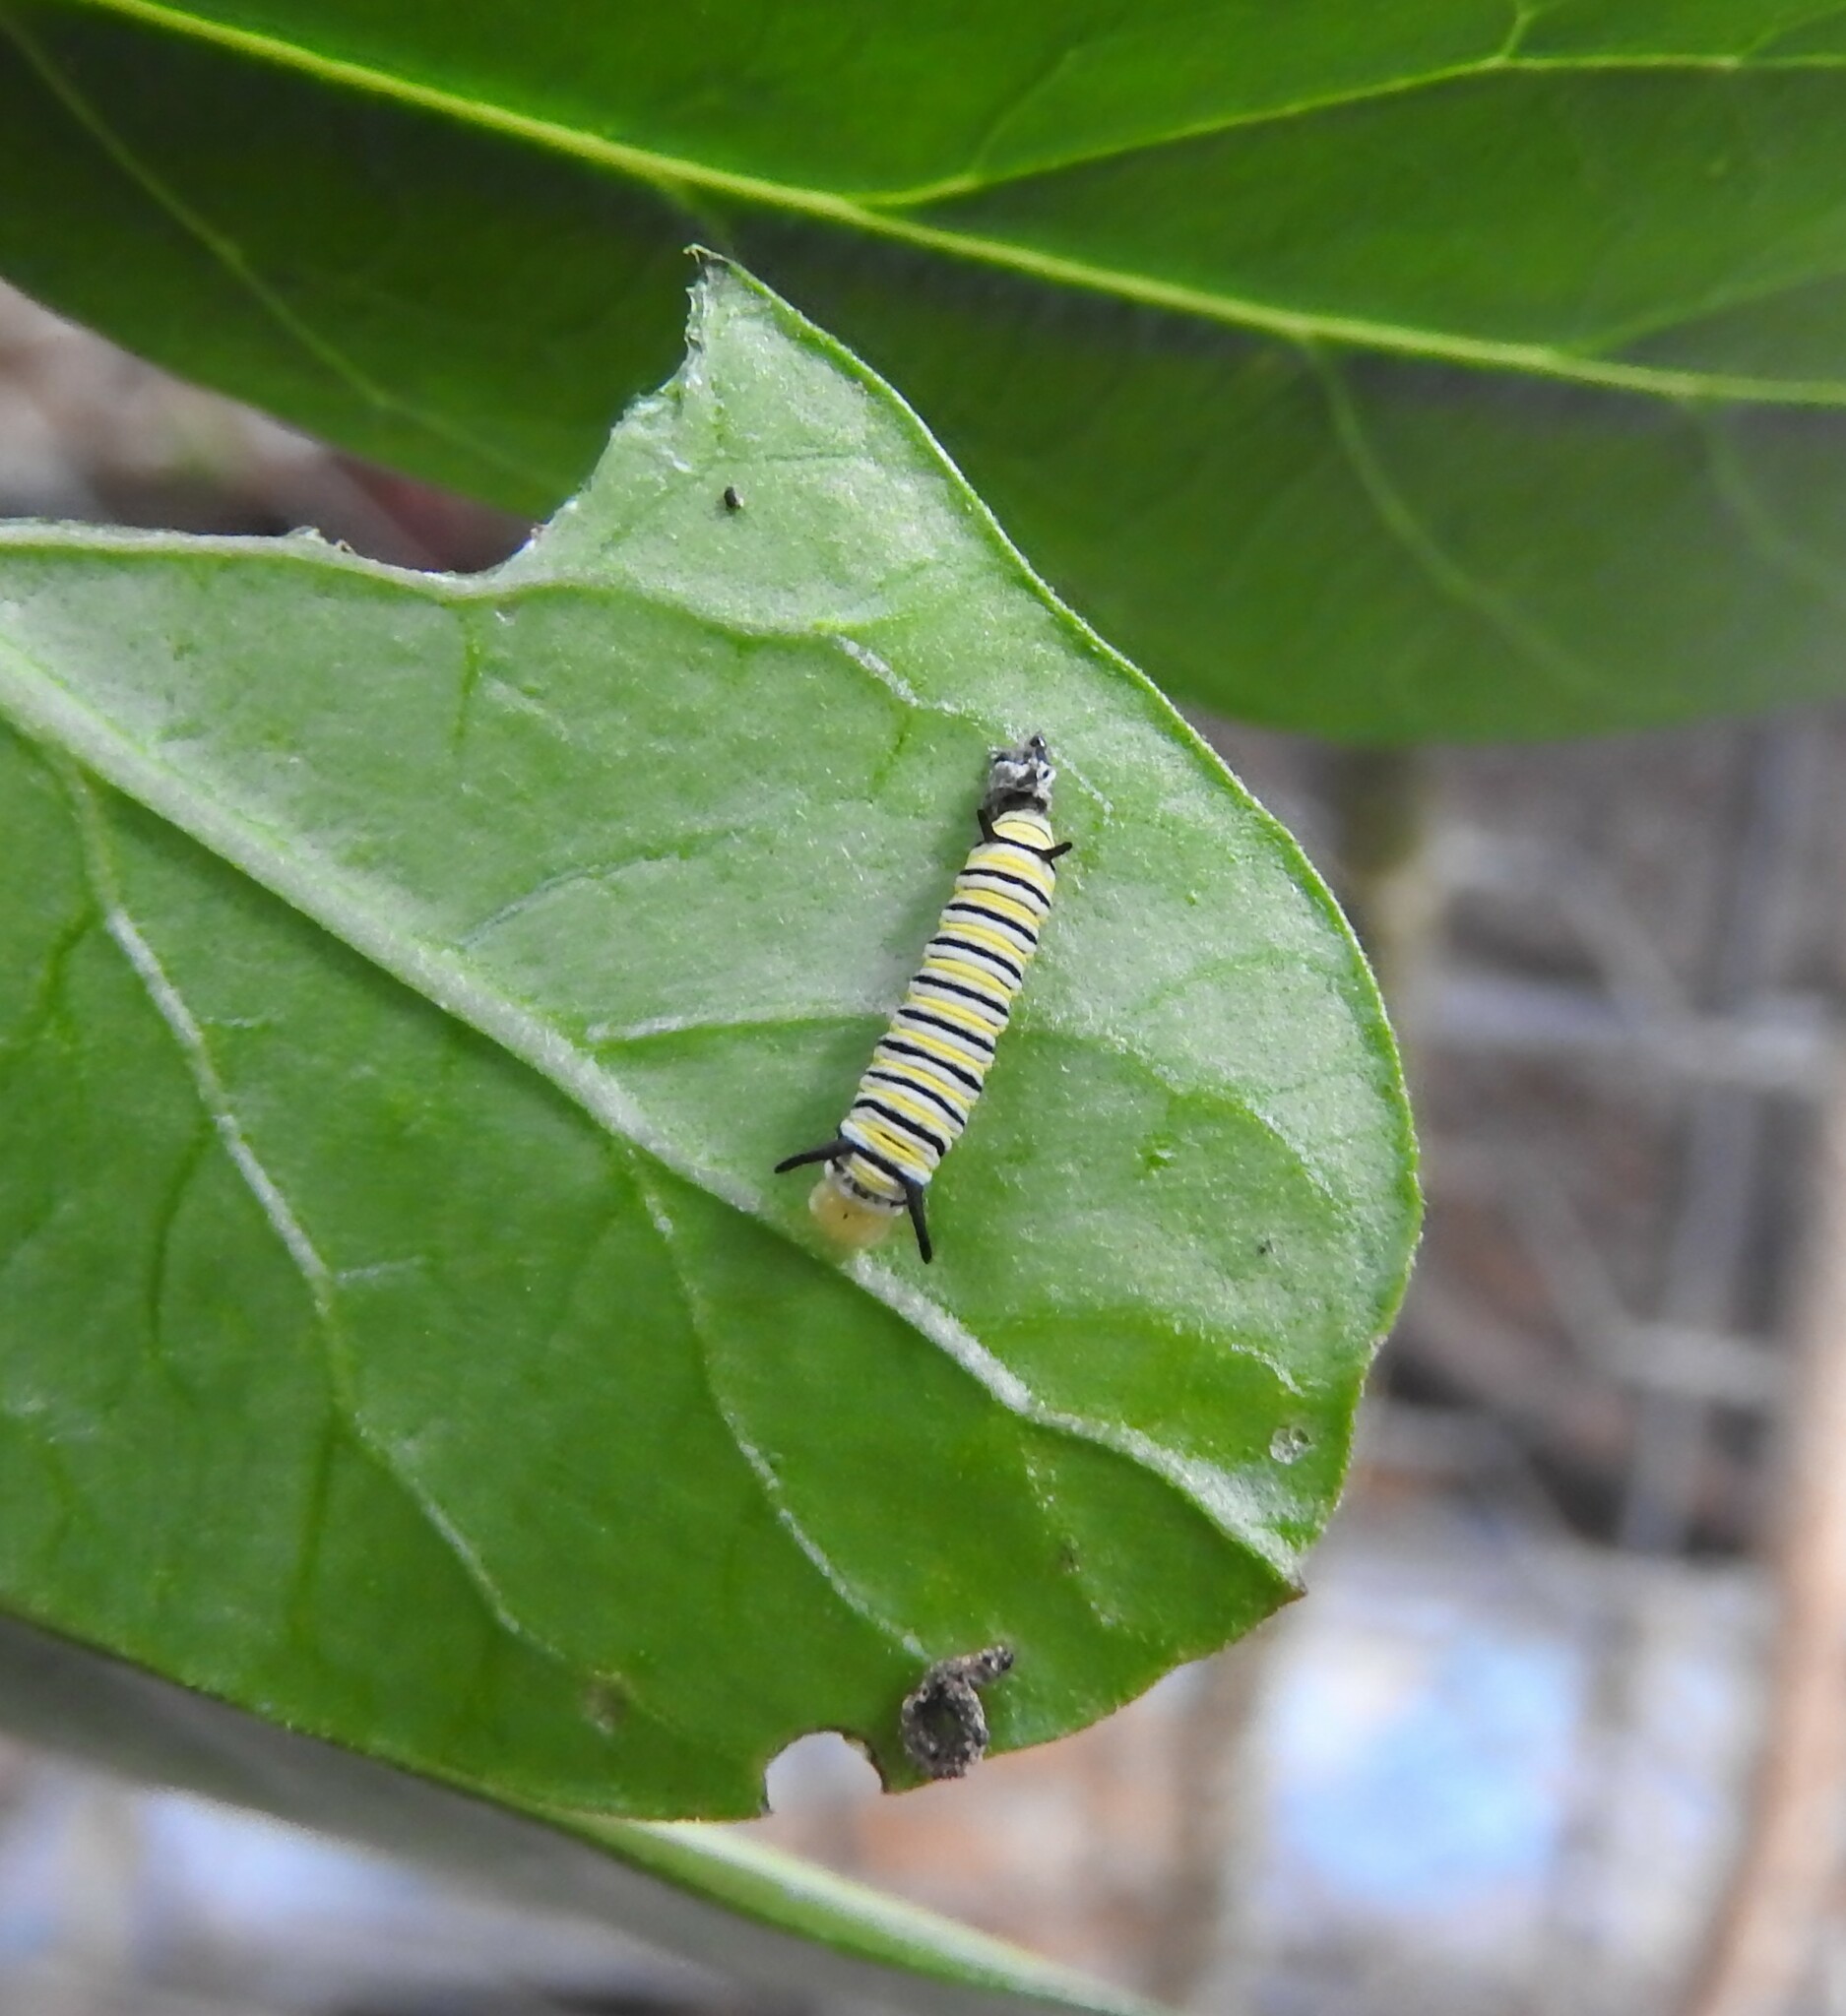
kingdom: Animalia
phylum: Arthropoda
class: Insecta
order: Lepidoptera
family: Nymphalidae
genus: Danaus
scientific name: Danaus plexippus
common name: Monarch
